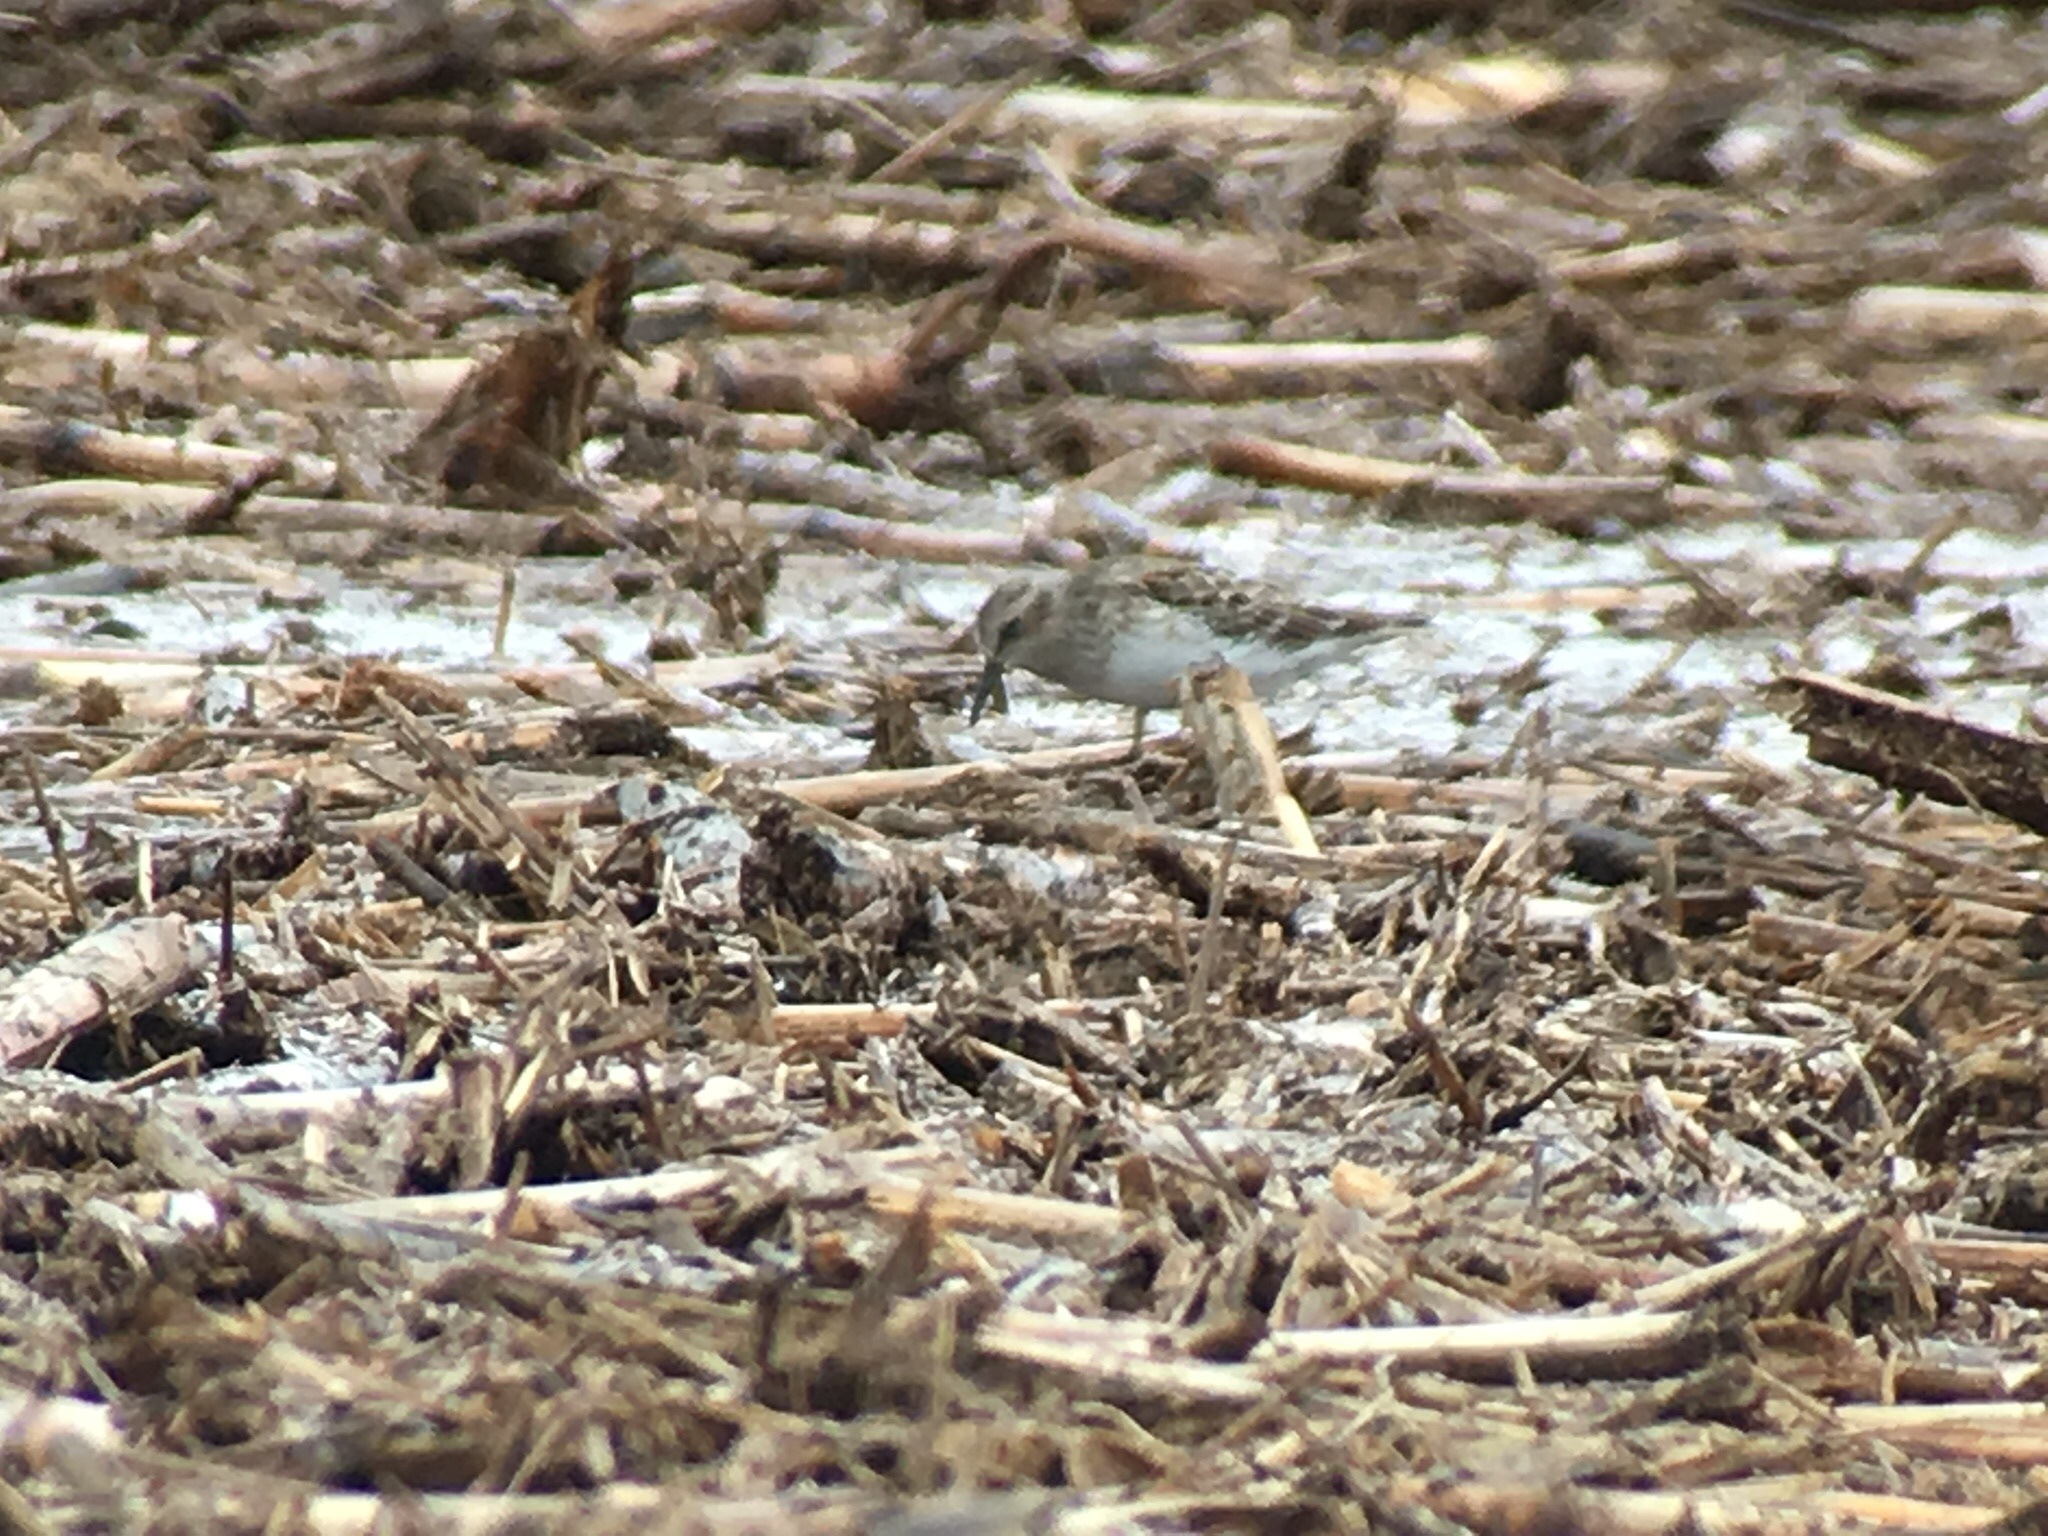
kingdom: Animalia
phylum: Chordata
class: Aves
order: Charadriiformes
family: Scolopacidae
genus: Calidris
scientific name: Calidris minutilla
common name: Least sandpiper
